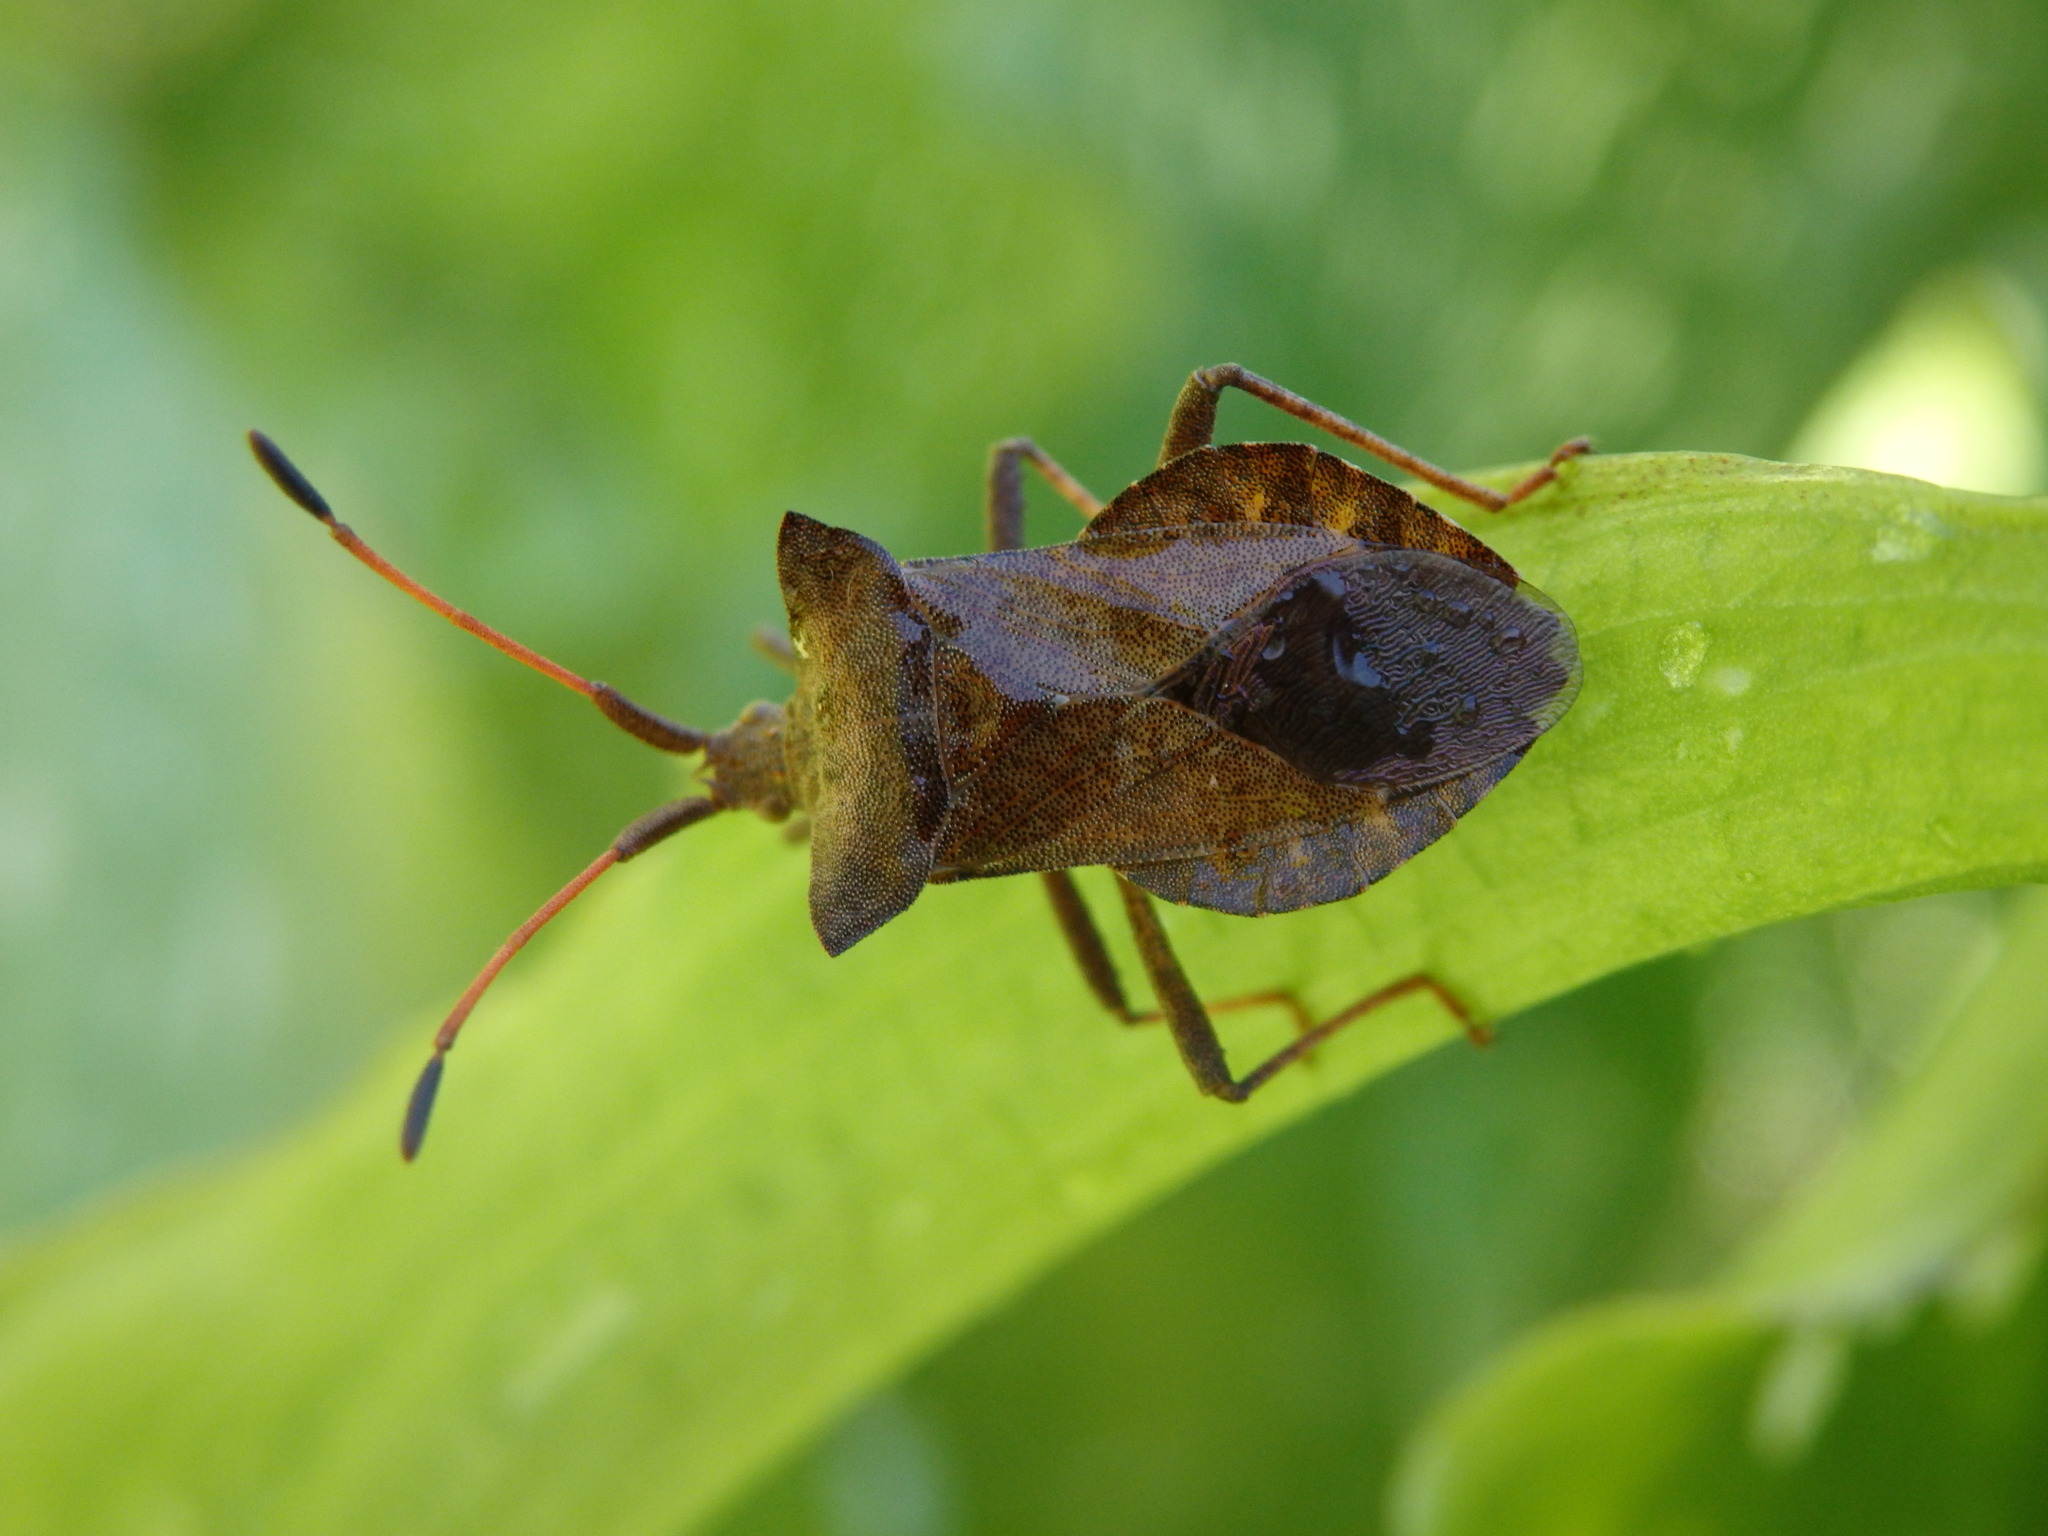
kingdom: Animalia
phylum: Arthropoda
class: Insecta
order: Hemiptera
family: Coreidae
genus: Coreus
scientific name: Coreus marginatus
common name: Dock bug
